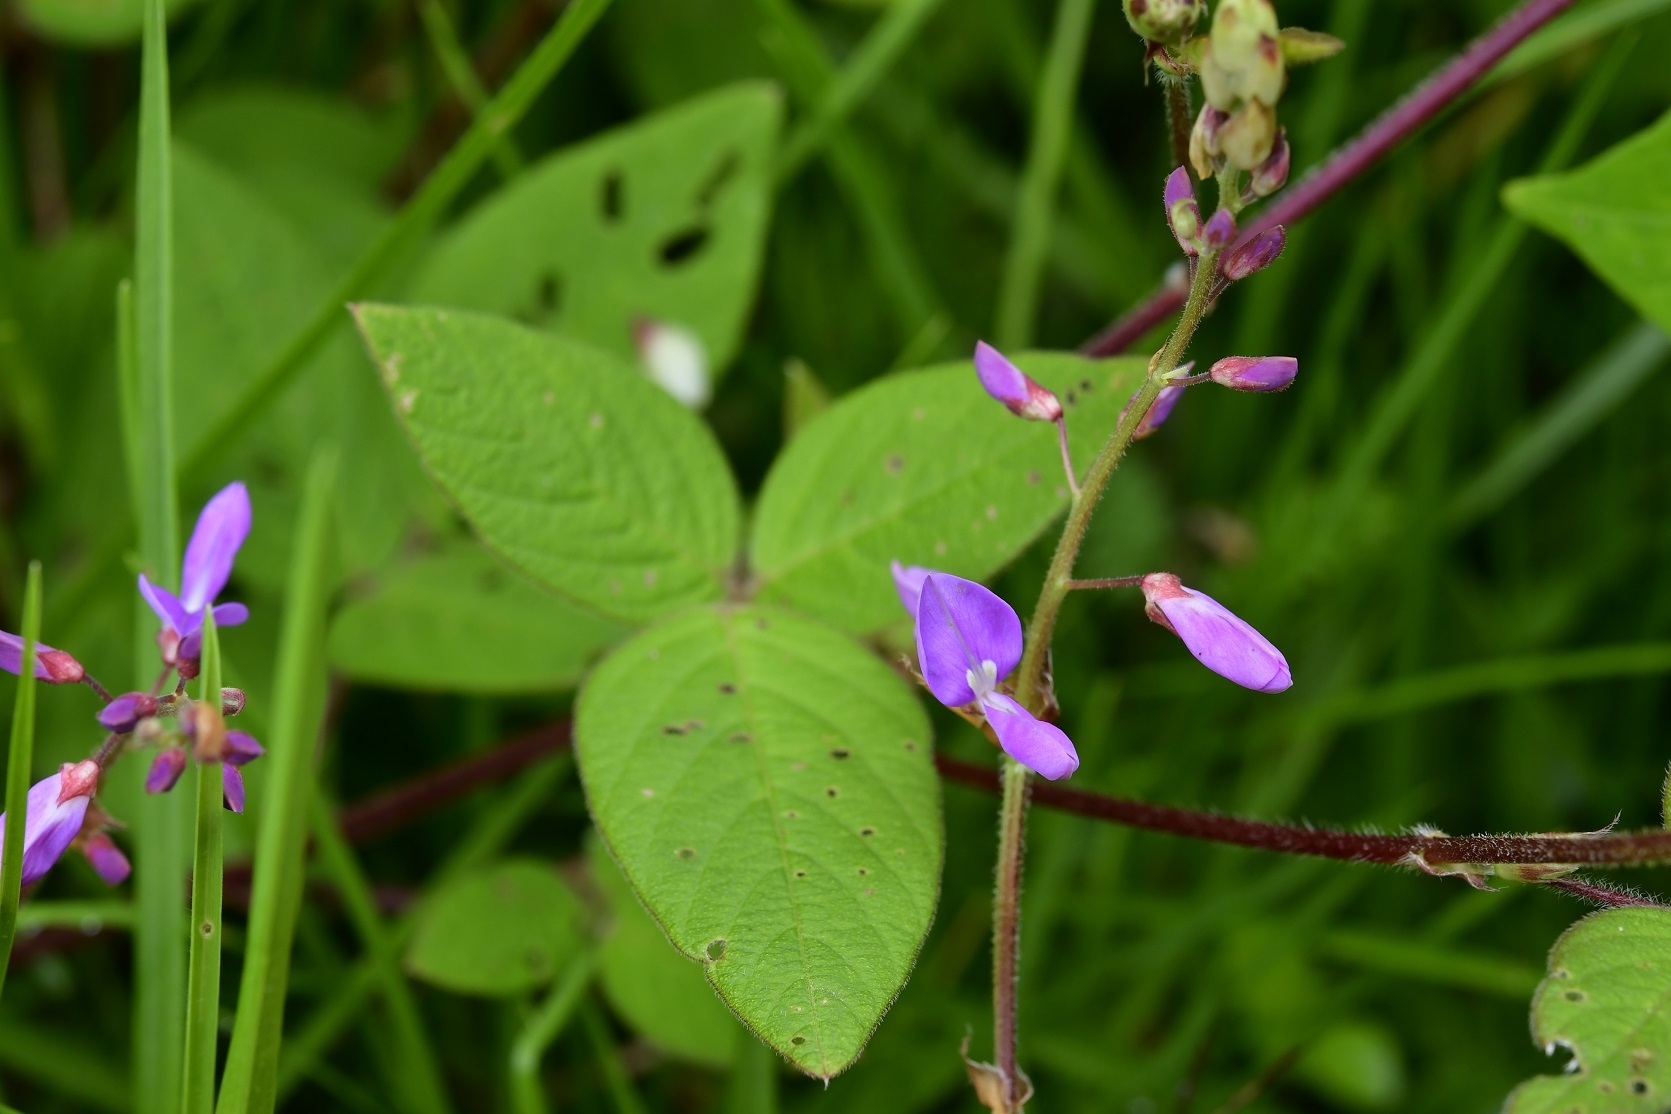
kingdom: Plantae
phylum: Tracheophyta
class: Magnoliopsida
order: Fabales
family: Fabaceae
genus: Desmodium
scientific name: Desmodium pringlei
